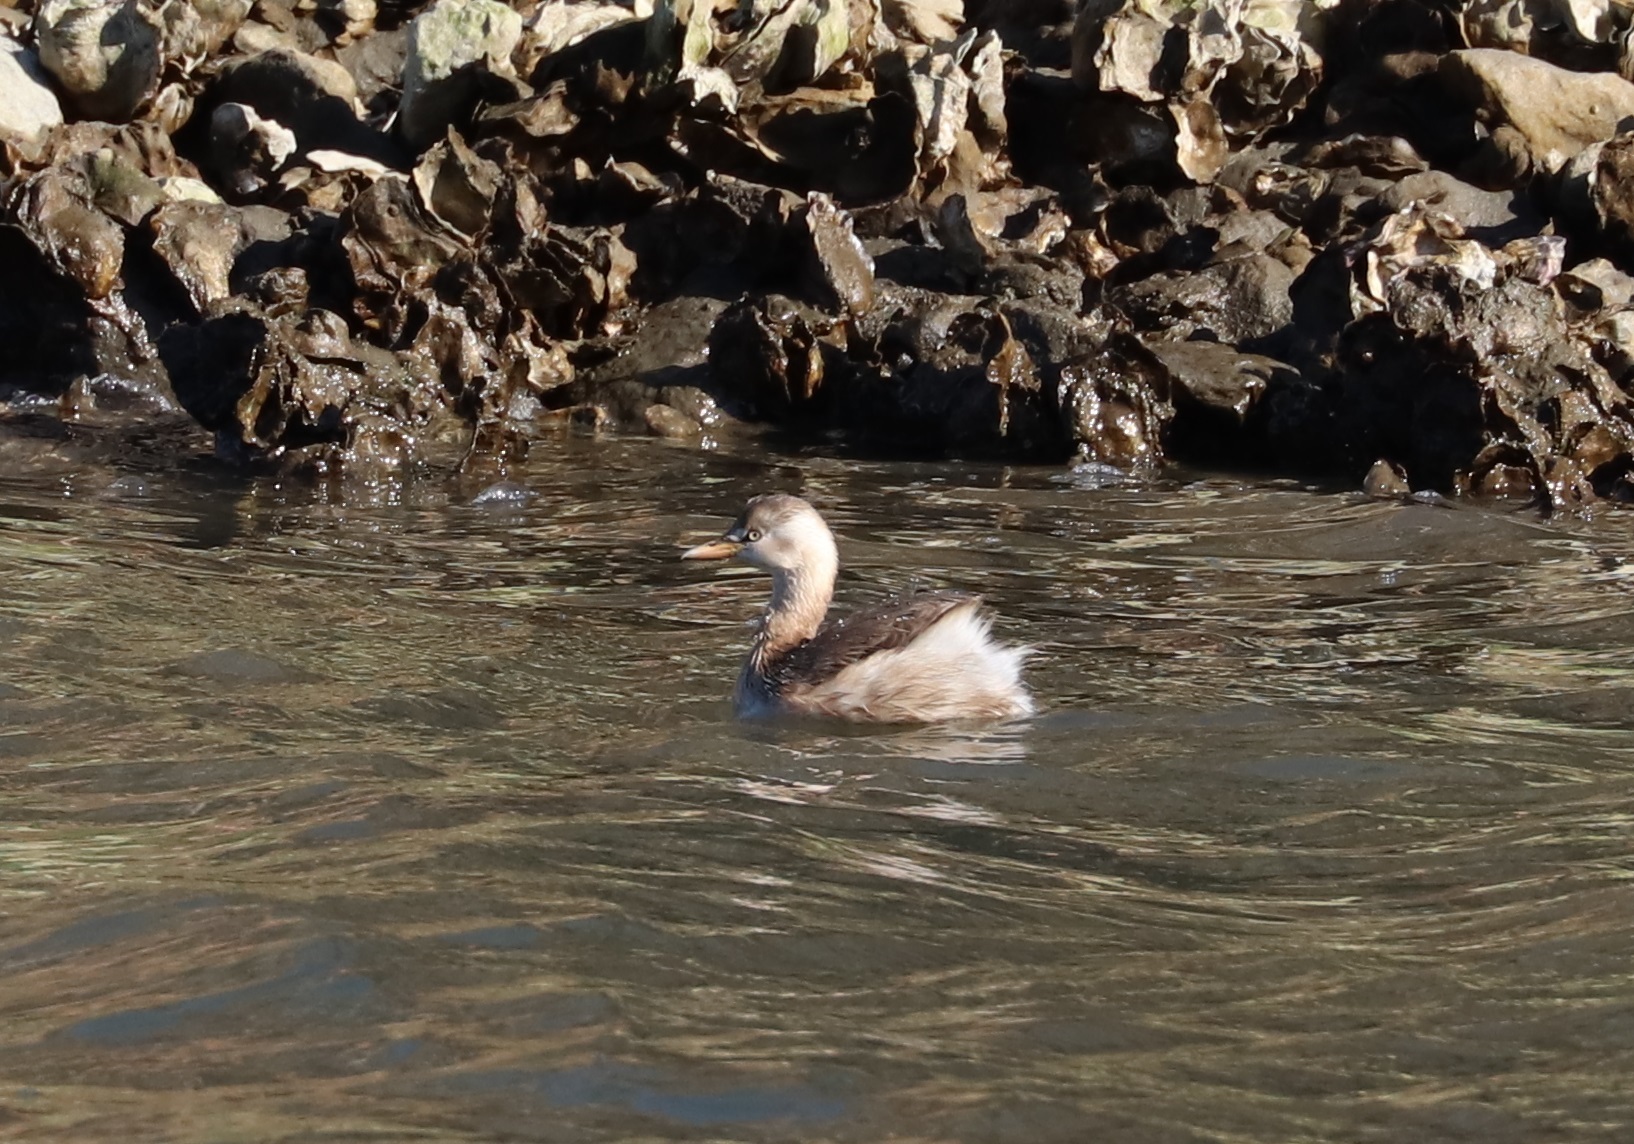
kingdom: Animalia
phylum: Chordata
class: Aves
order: Podicipediformes
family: Podicipedidae
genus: Tachybaptus
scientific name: Tachybaptus ruficollis
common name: Little grebe
